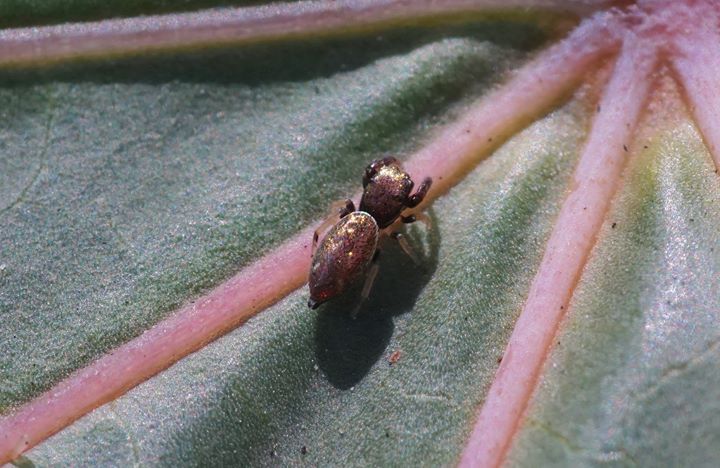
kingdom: Animalia
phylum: Arthropoda
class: Arachnida
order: Araneae
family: Salticidae
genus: Sassacus
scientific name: Sassacus vitis
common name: Jumping spiders
